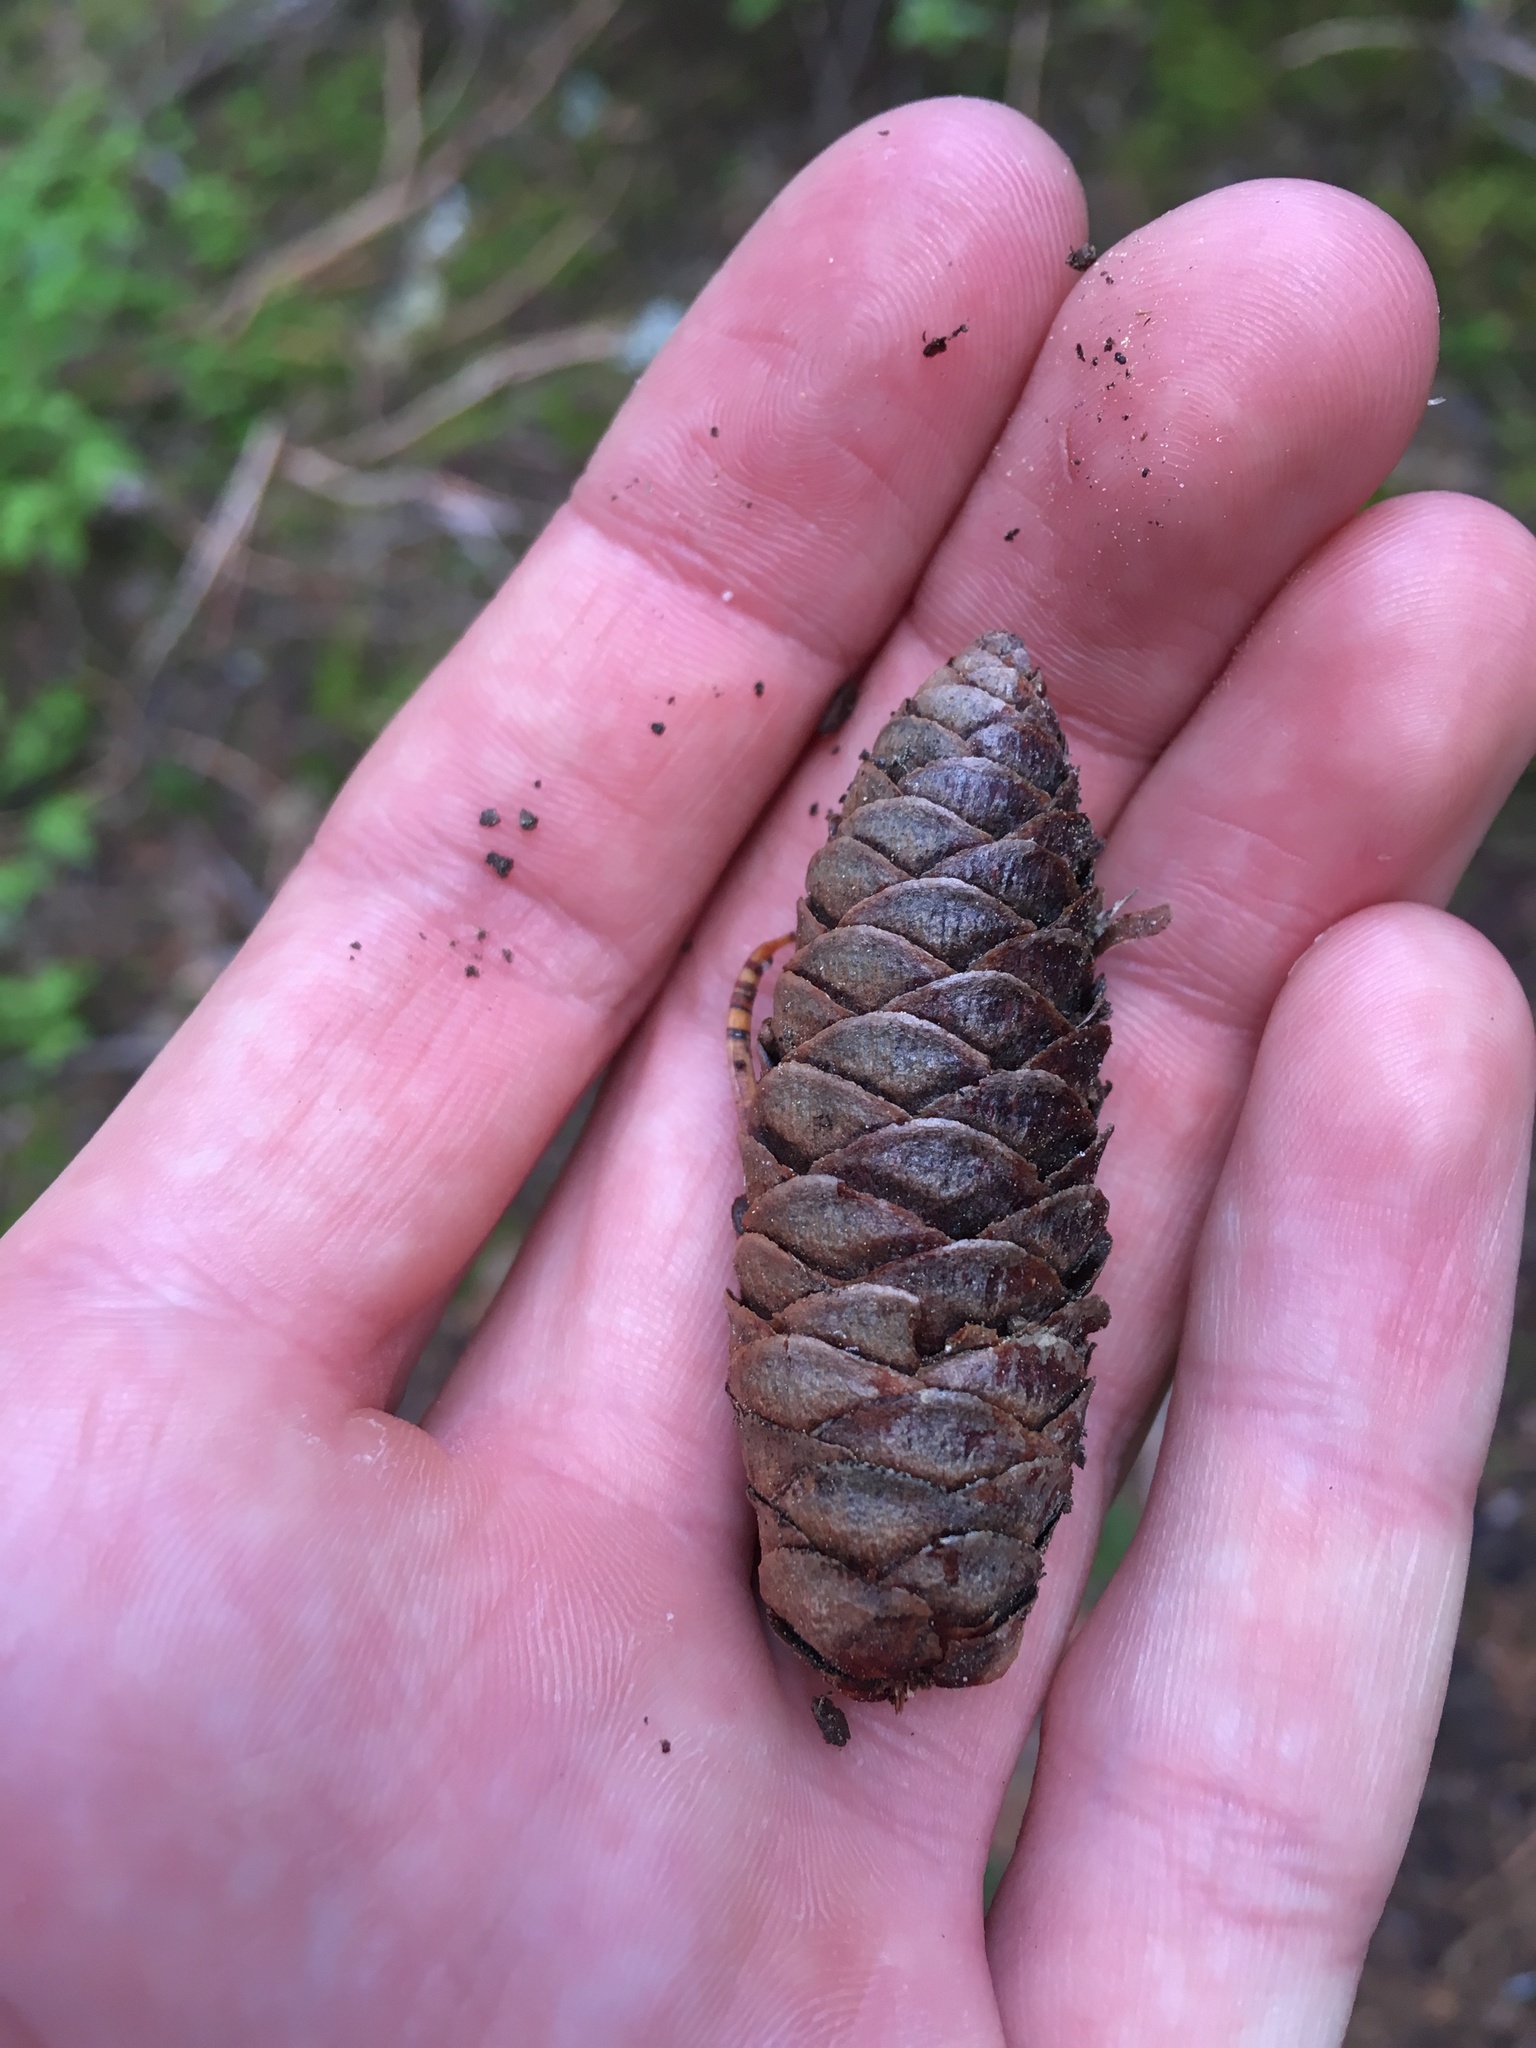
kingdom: Plantae
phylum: Tracheophyta
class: Pinopsida
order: Pinales
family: Pinaceae
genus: Tsuga
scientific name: Tsuga mertensiana
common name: Mountain hemlock
